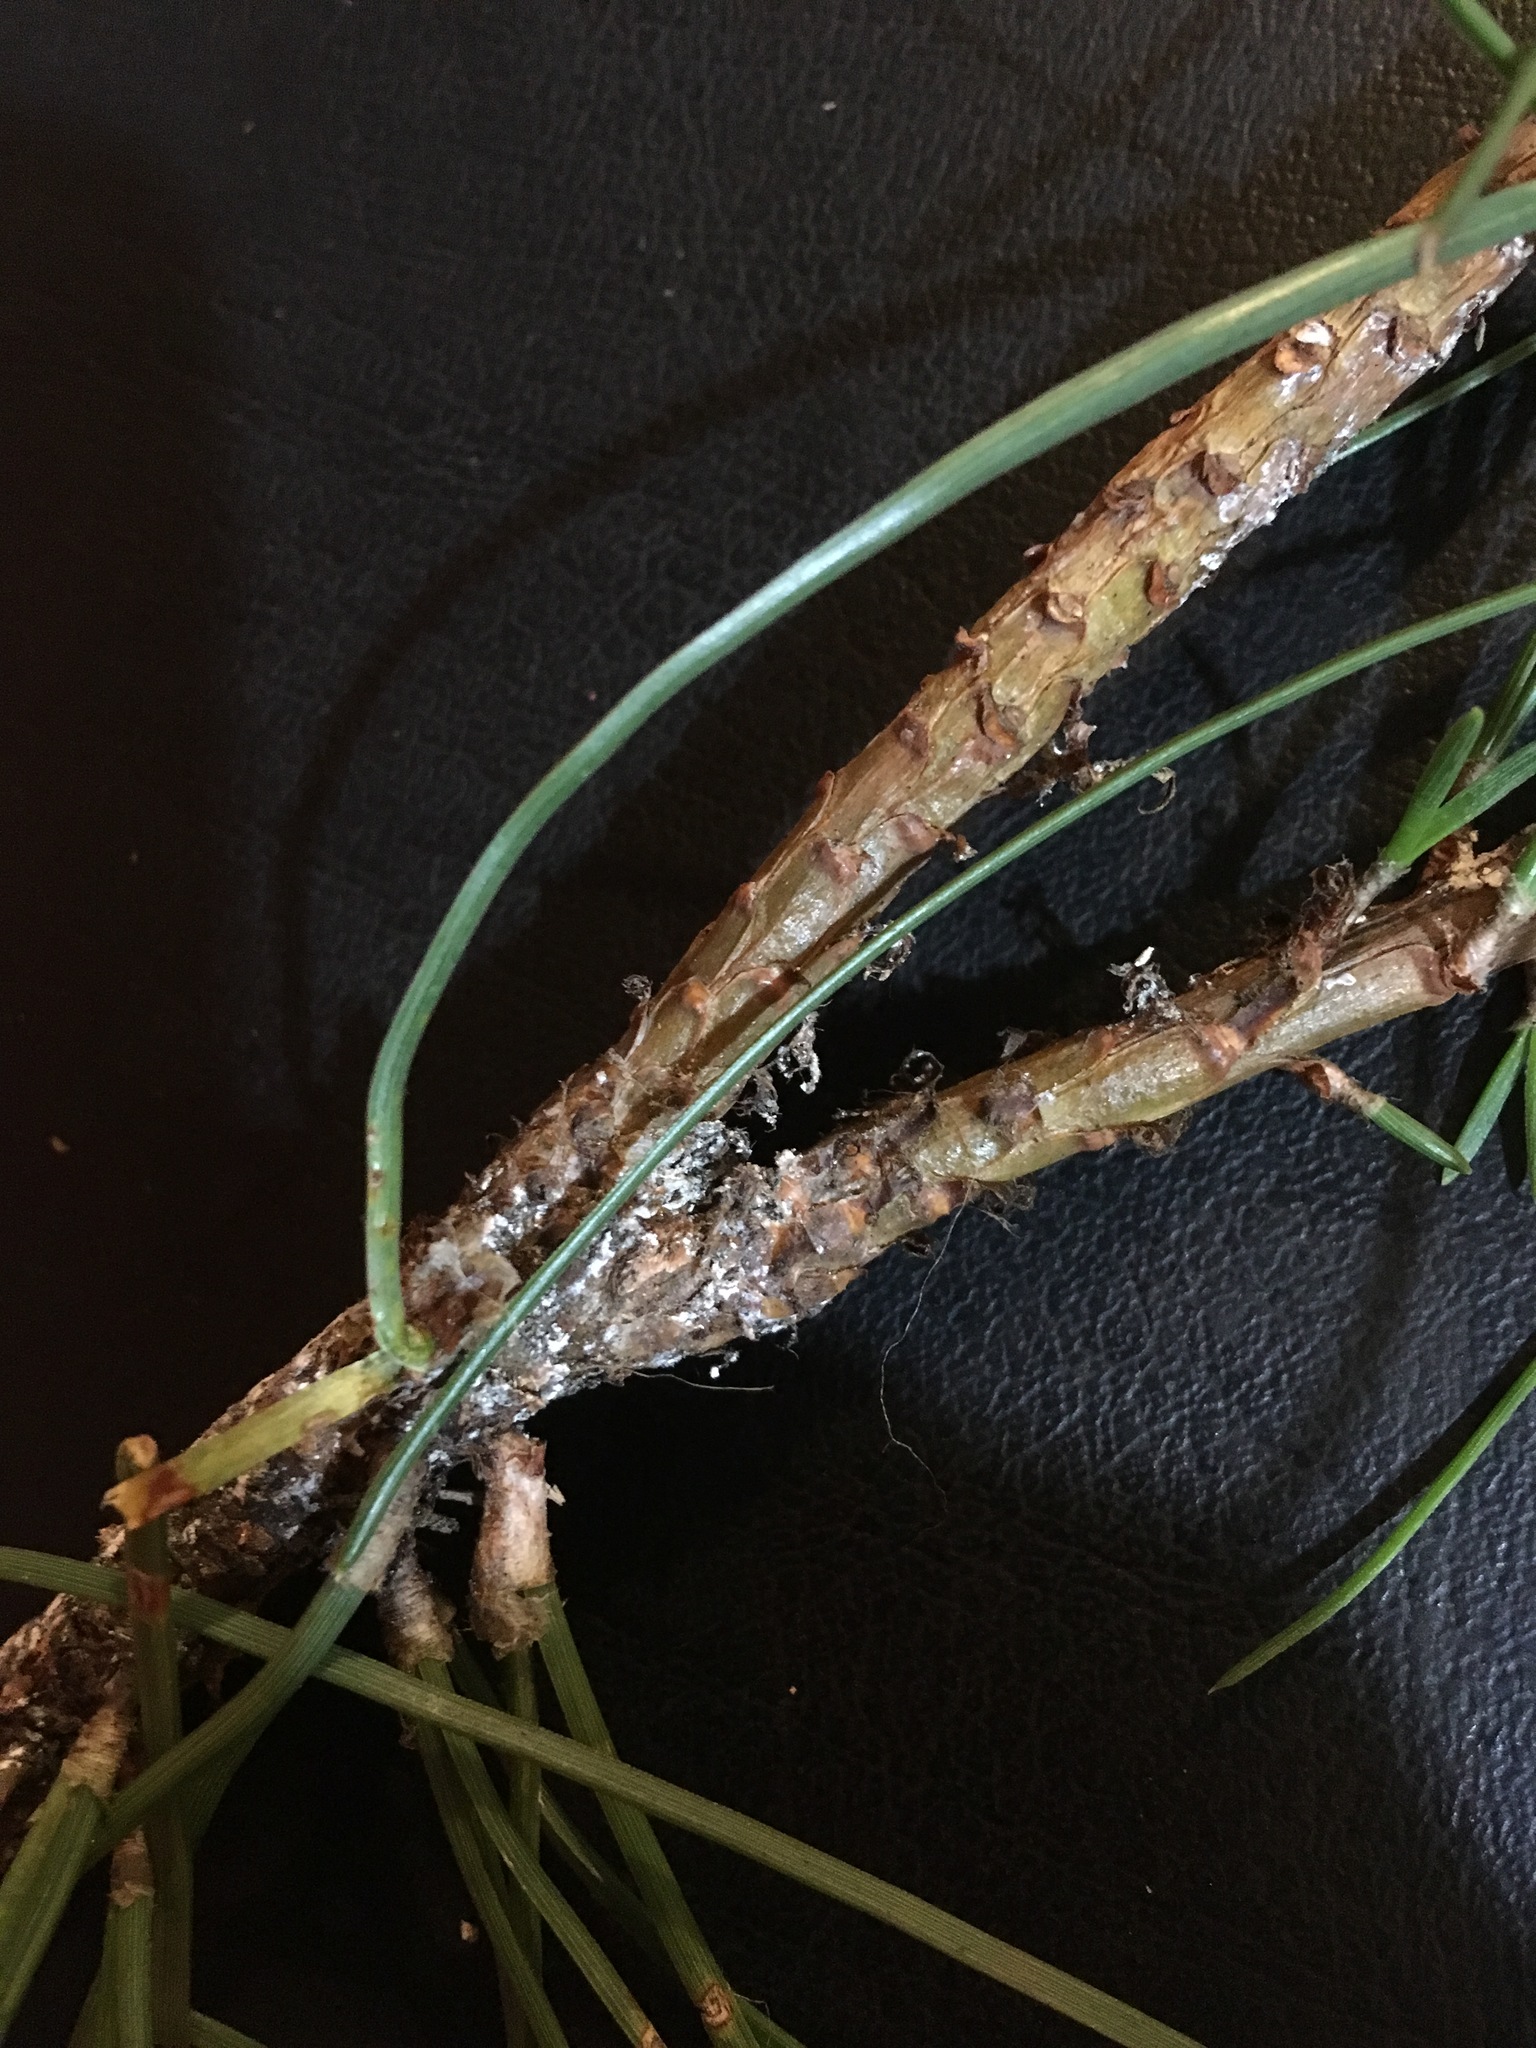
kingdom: Plantae
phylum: Tracheophyta
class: Pinopsida
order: Pinales
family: Pinaceae
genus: Pinus
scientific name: Pinus pinaster
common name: Maritime pine
